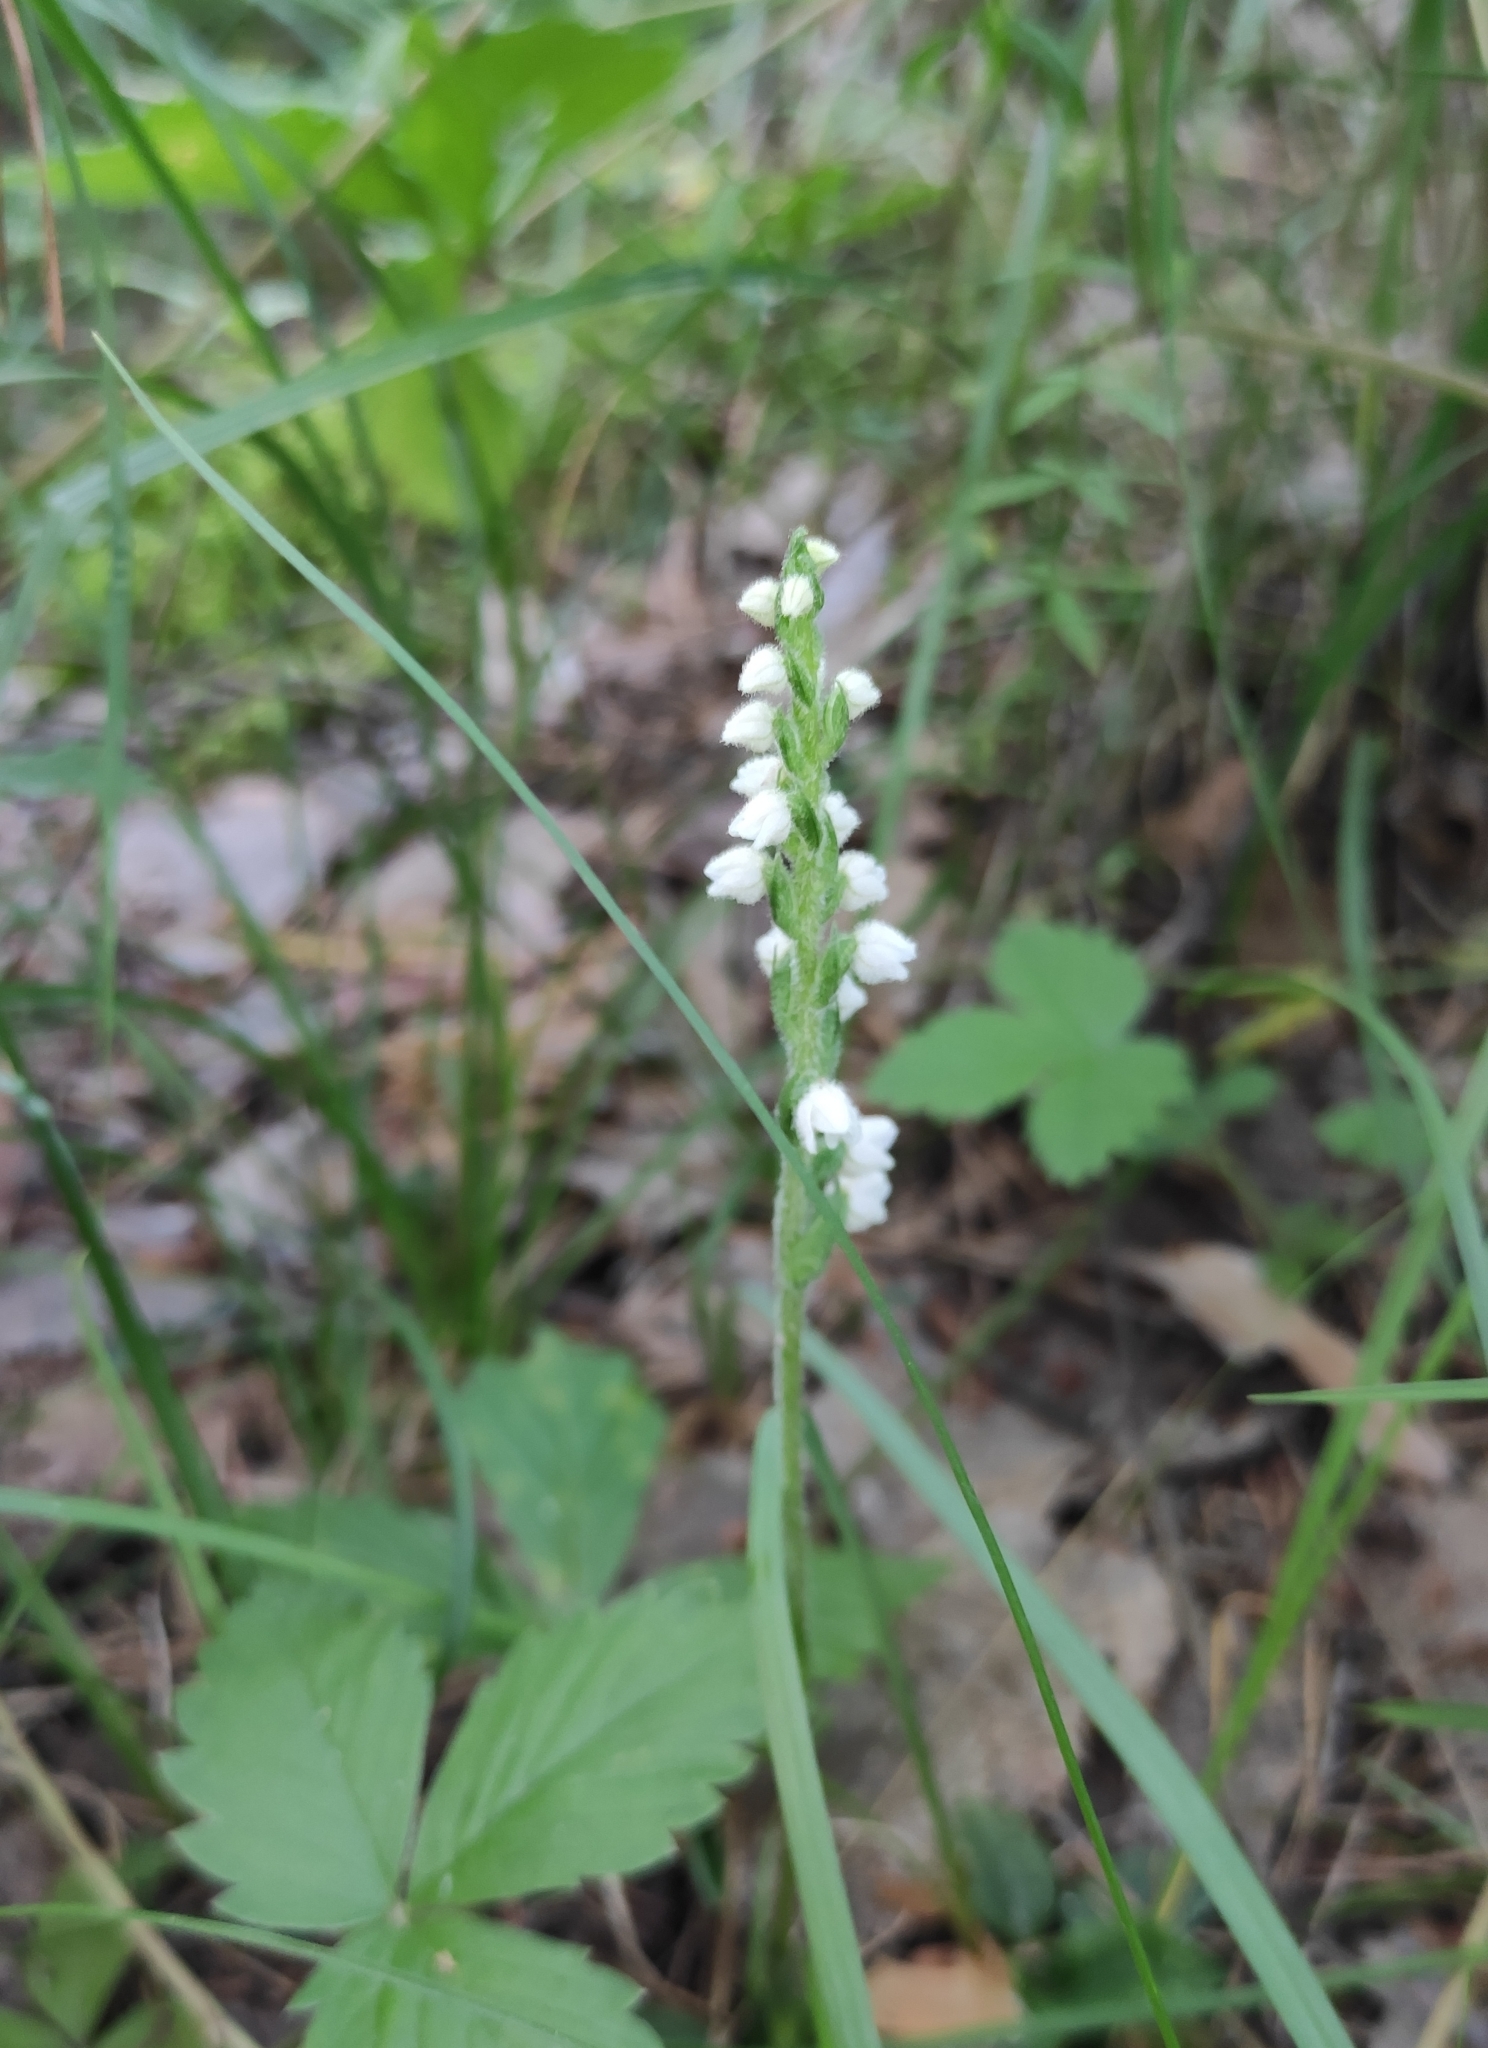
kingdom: Plantae
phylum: Tracheophyta
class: Liliopsida
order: Asparagales
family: Orchidaceae
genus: Goodyera
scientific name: Goodyera repens
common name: Creeping lady's-tresses
